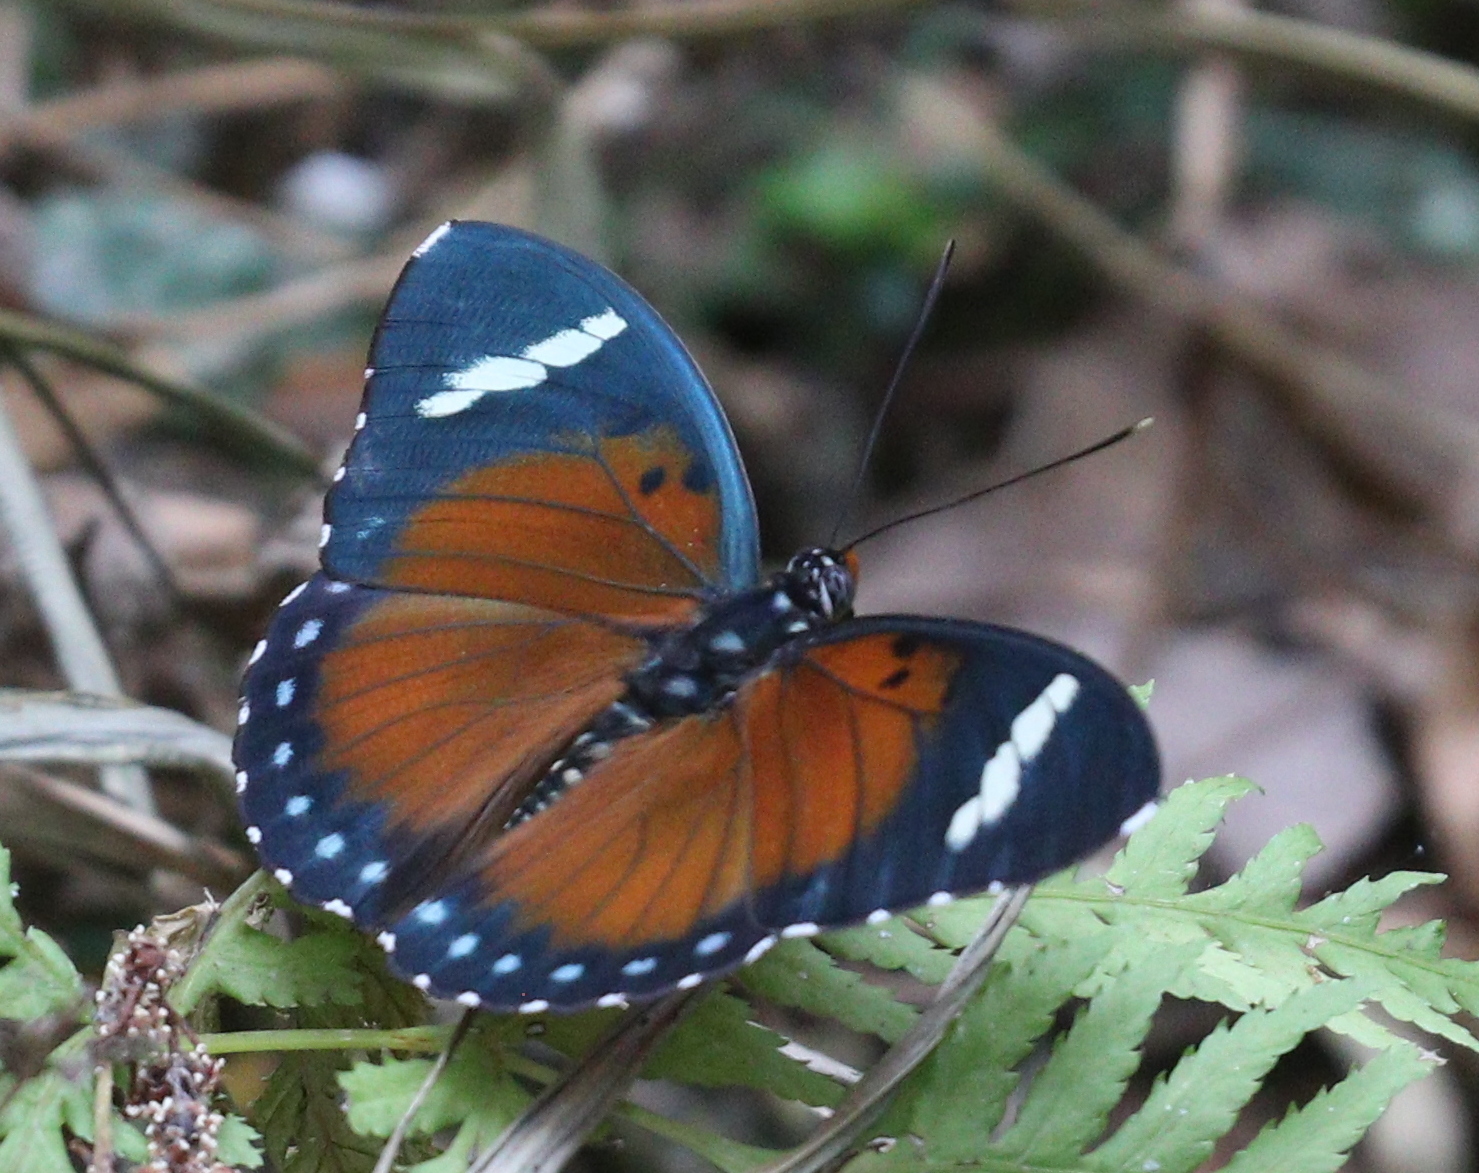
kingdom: Animalia
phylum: Arthropoda
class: Insecta
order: Lepidoptera
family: Nymphalidae
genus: Euphaedra
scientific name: Euphaedra rattrayi
